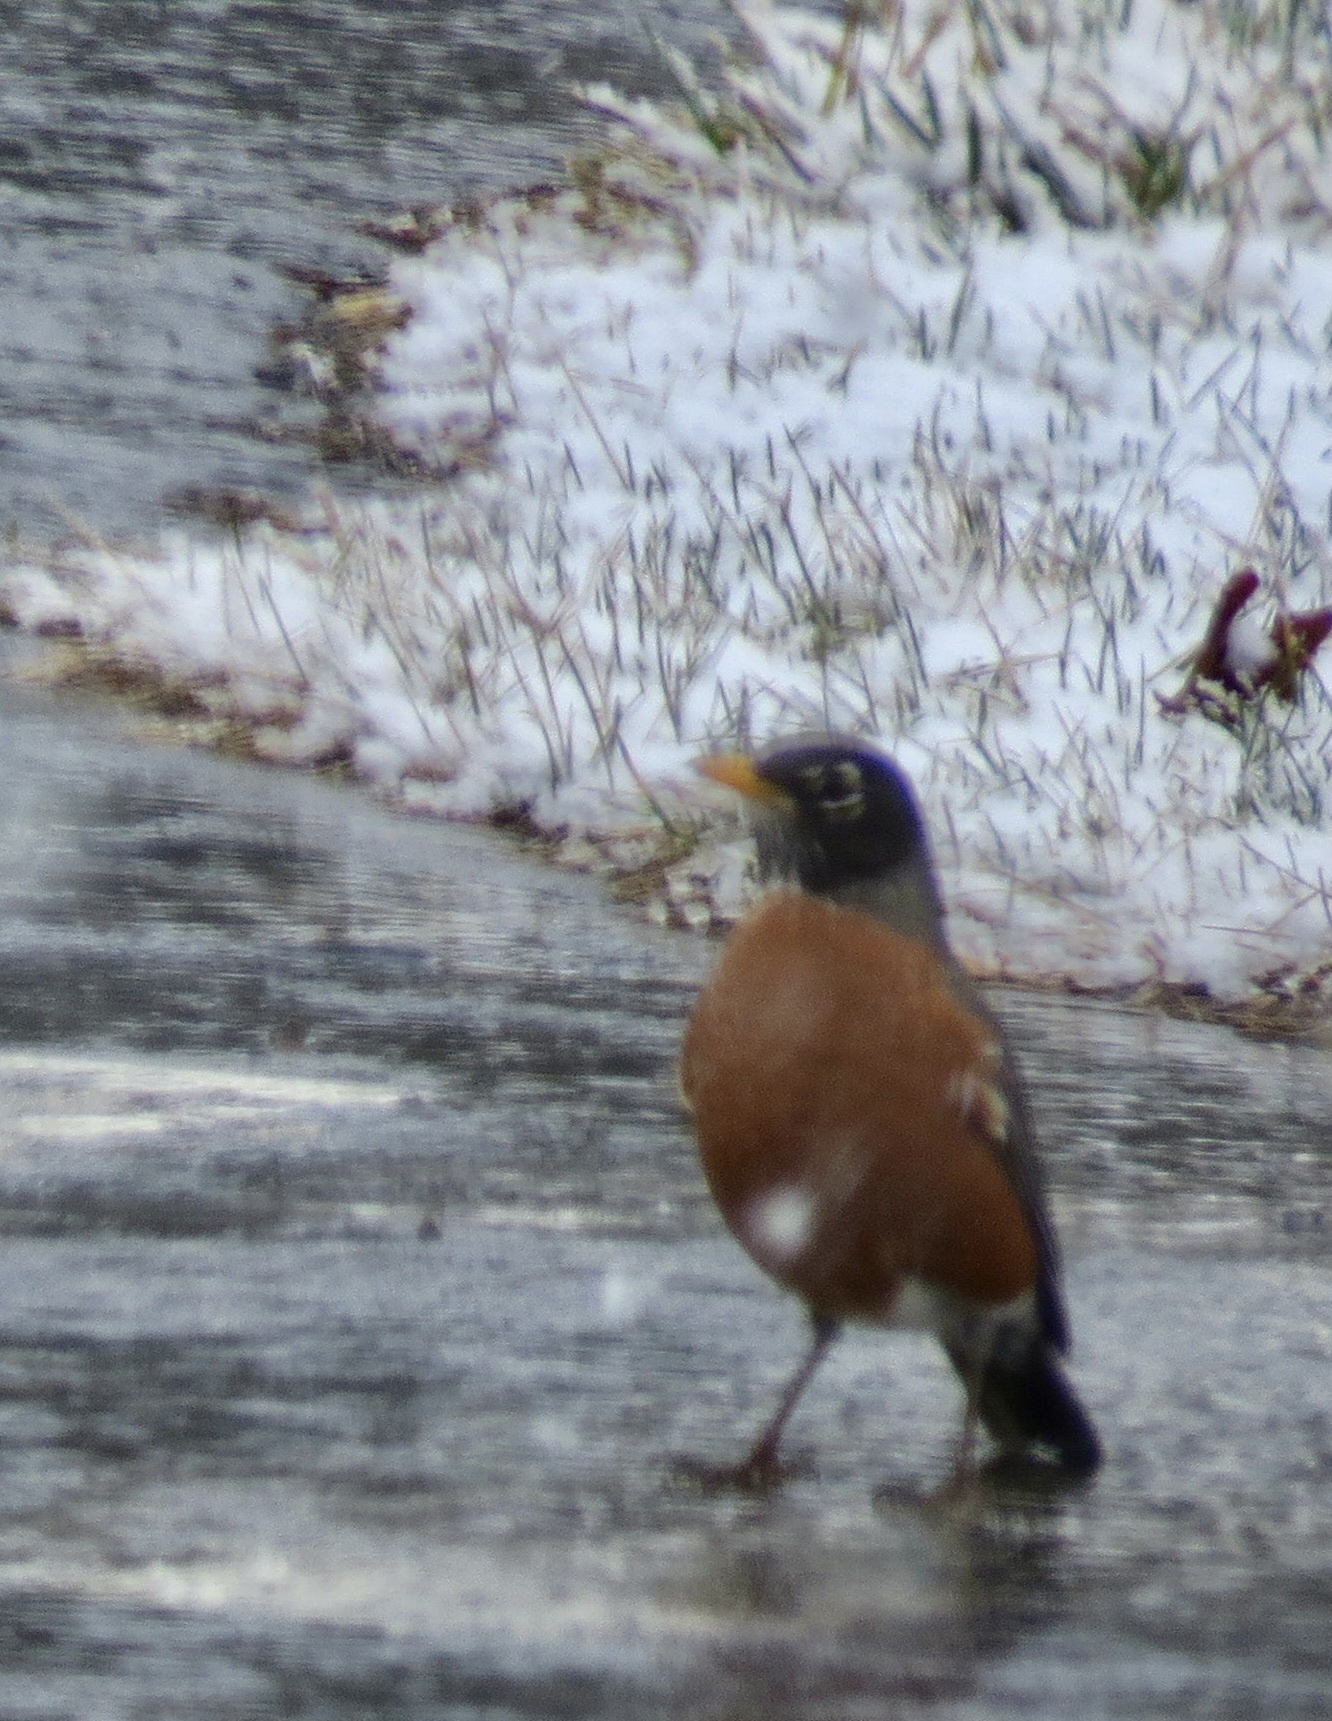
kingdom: Animalia
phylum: Chordata
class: Aves
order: Passeriformes
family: Turdidae
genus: Turdus
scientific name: Turdus migratorius
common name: American robin
